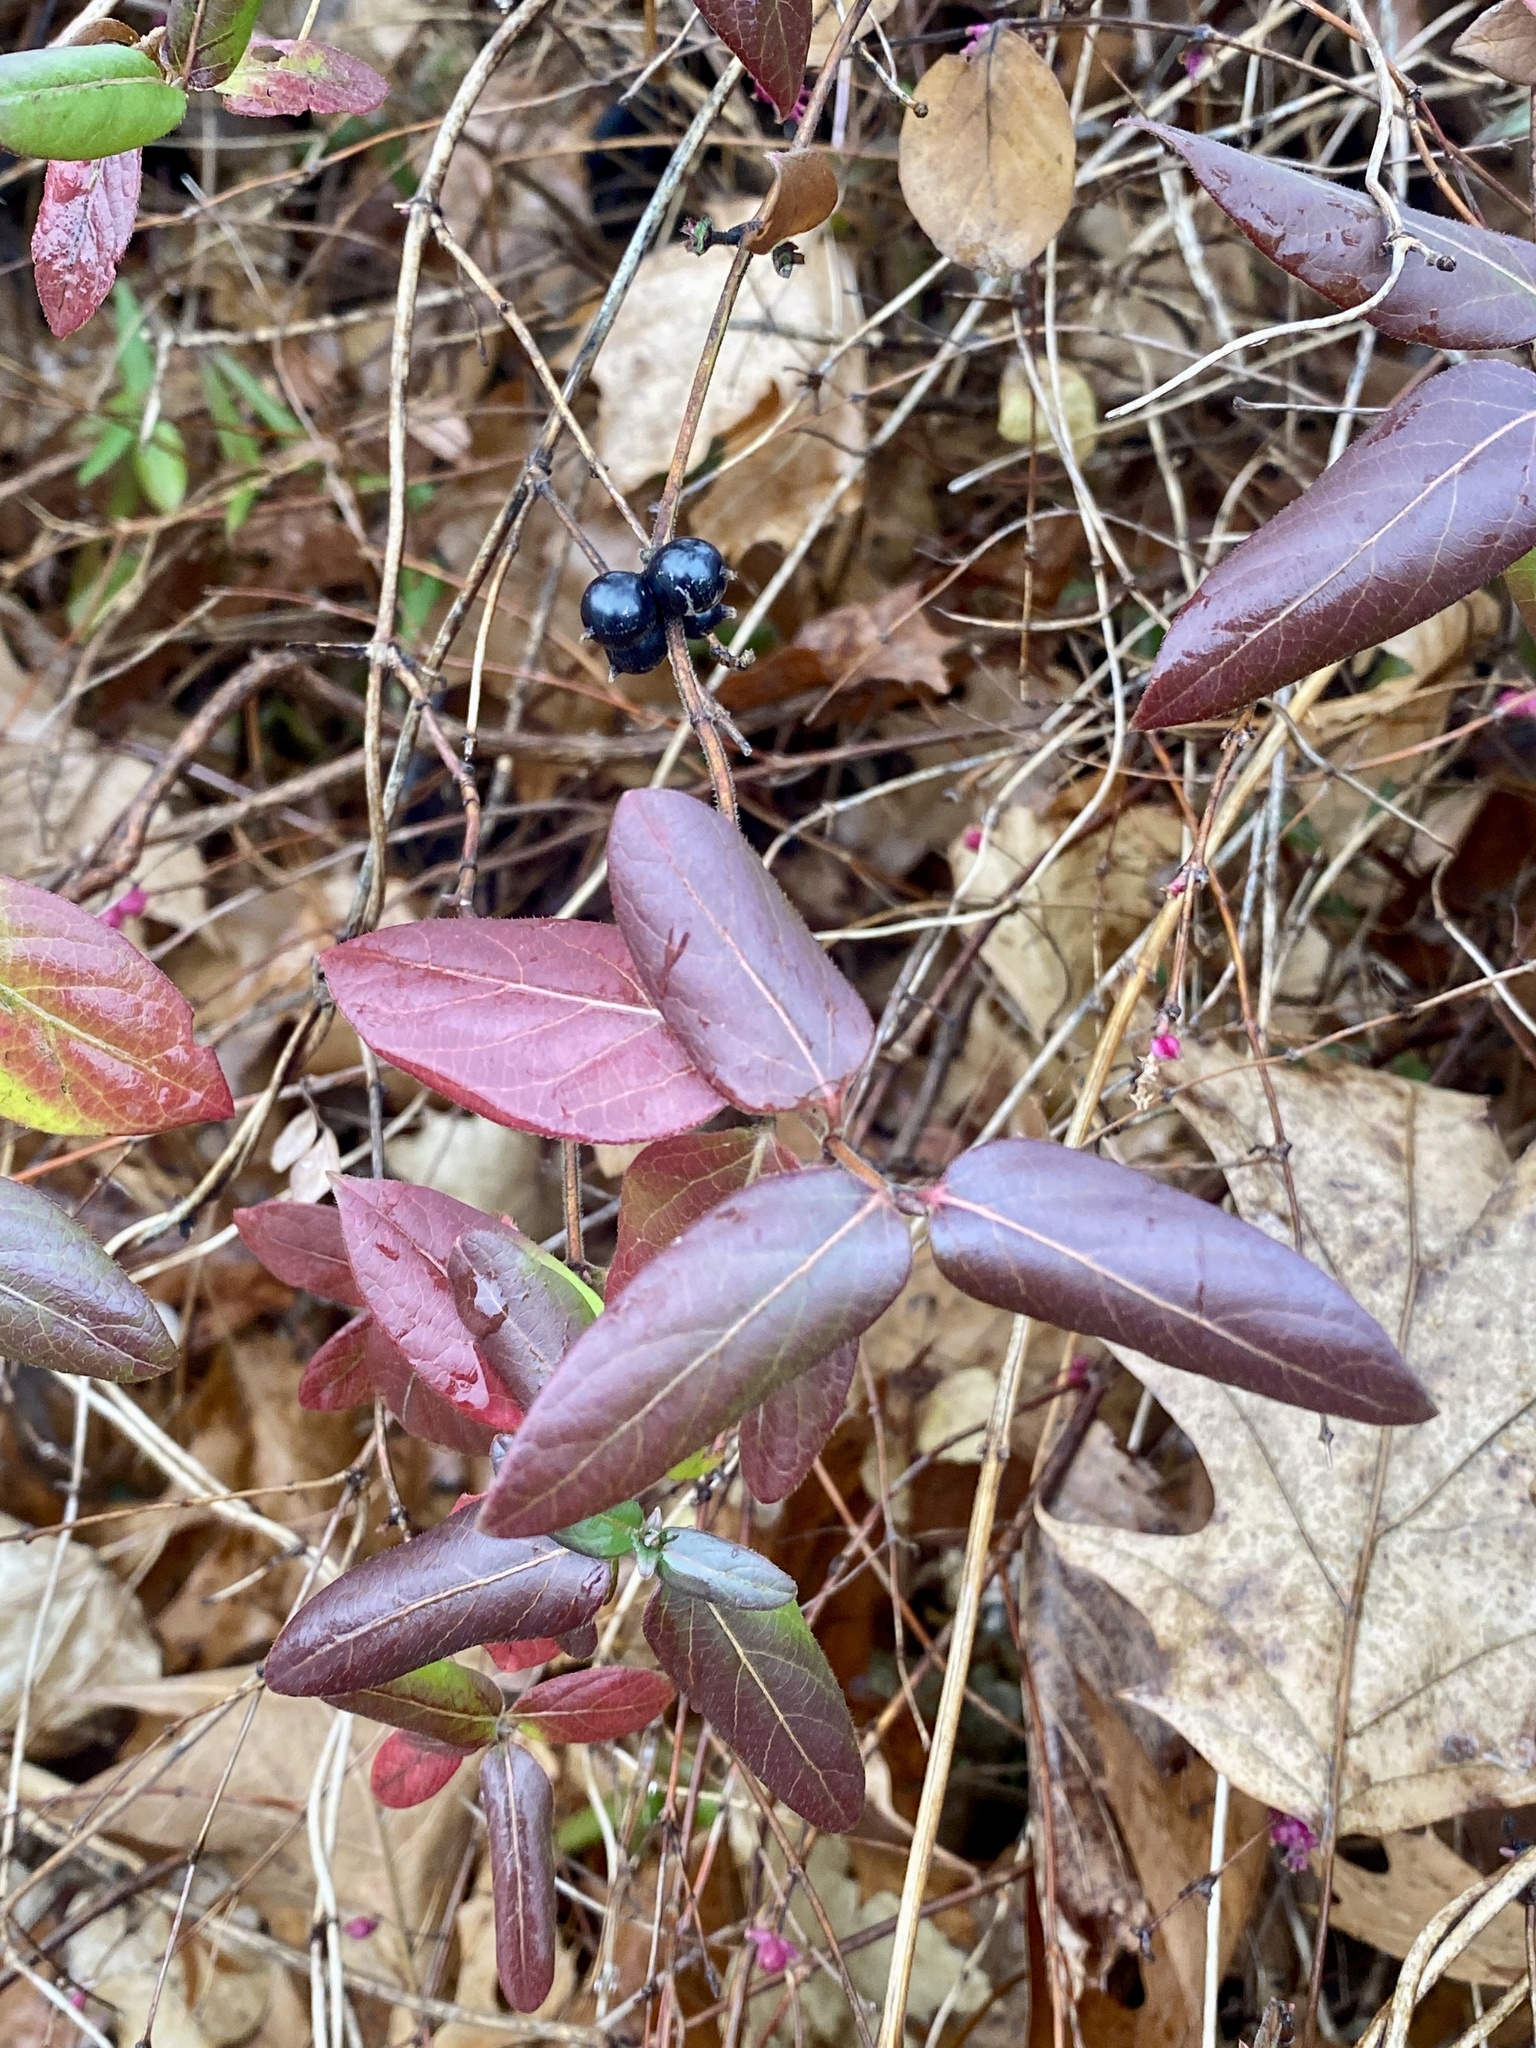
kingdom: Plantae
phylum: Tracheophyta
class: Magnoliopsida
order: Dipsacales
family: Caprifoliaceae
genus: Lonicera
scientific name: Lonicera japonica
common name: Japanese honeysuckle
